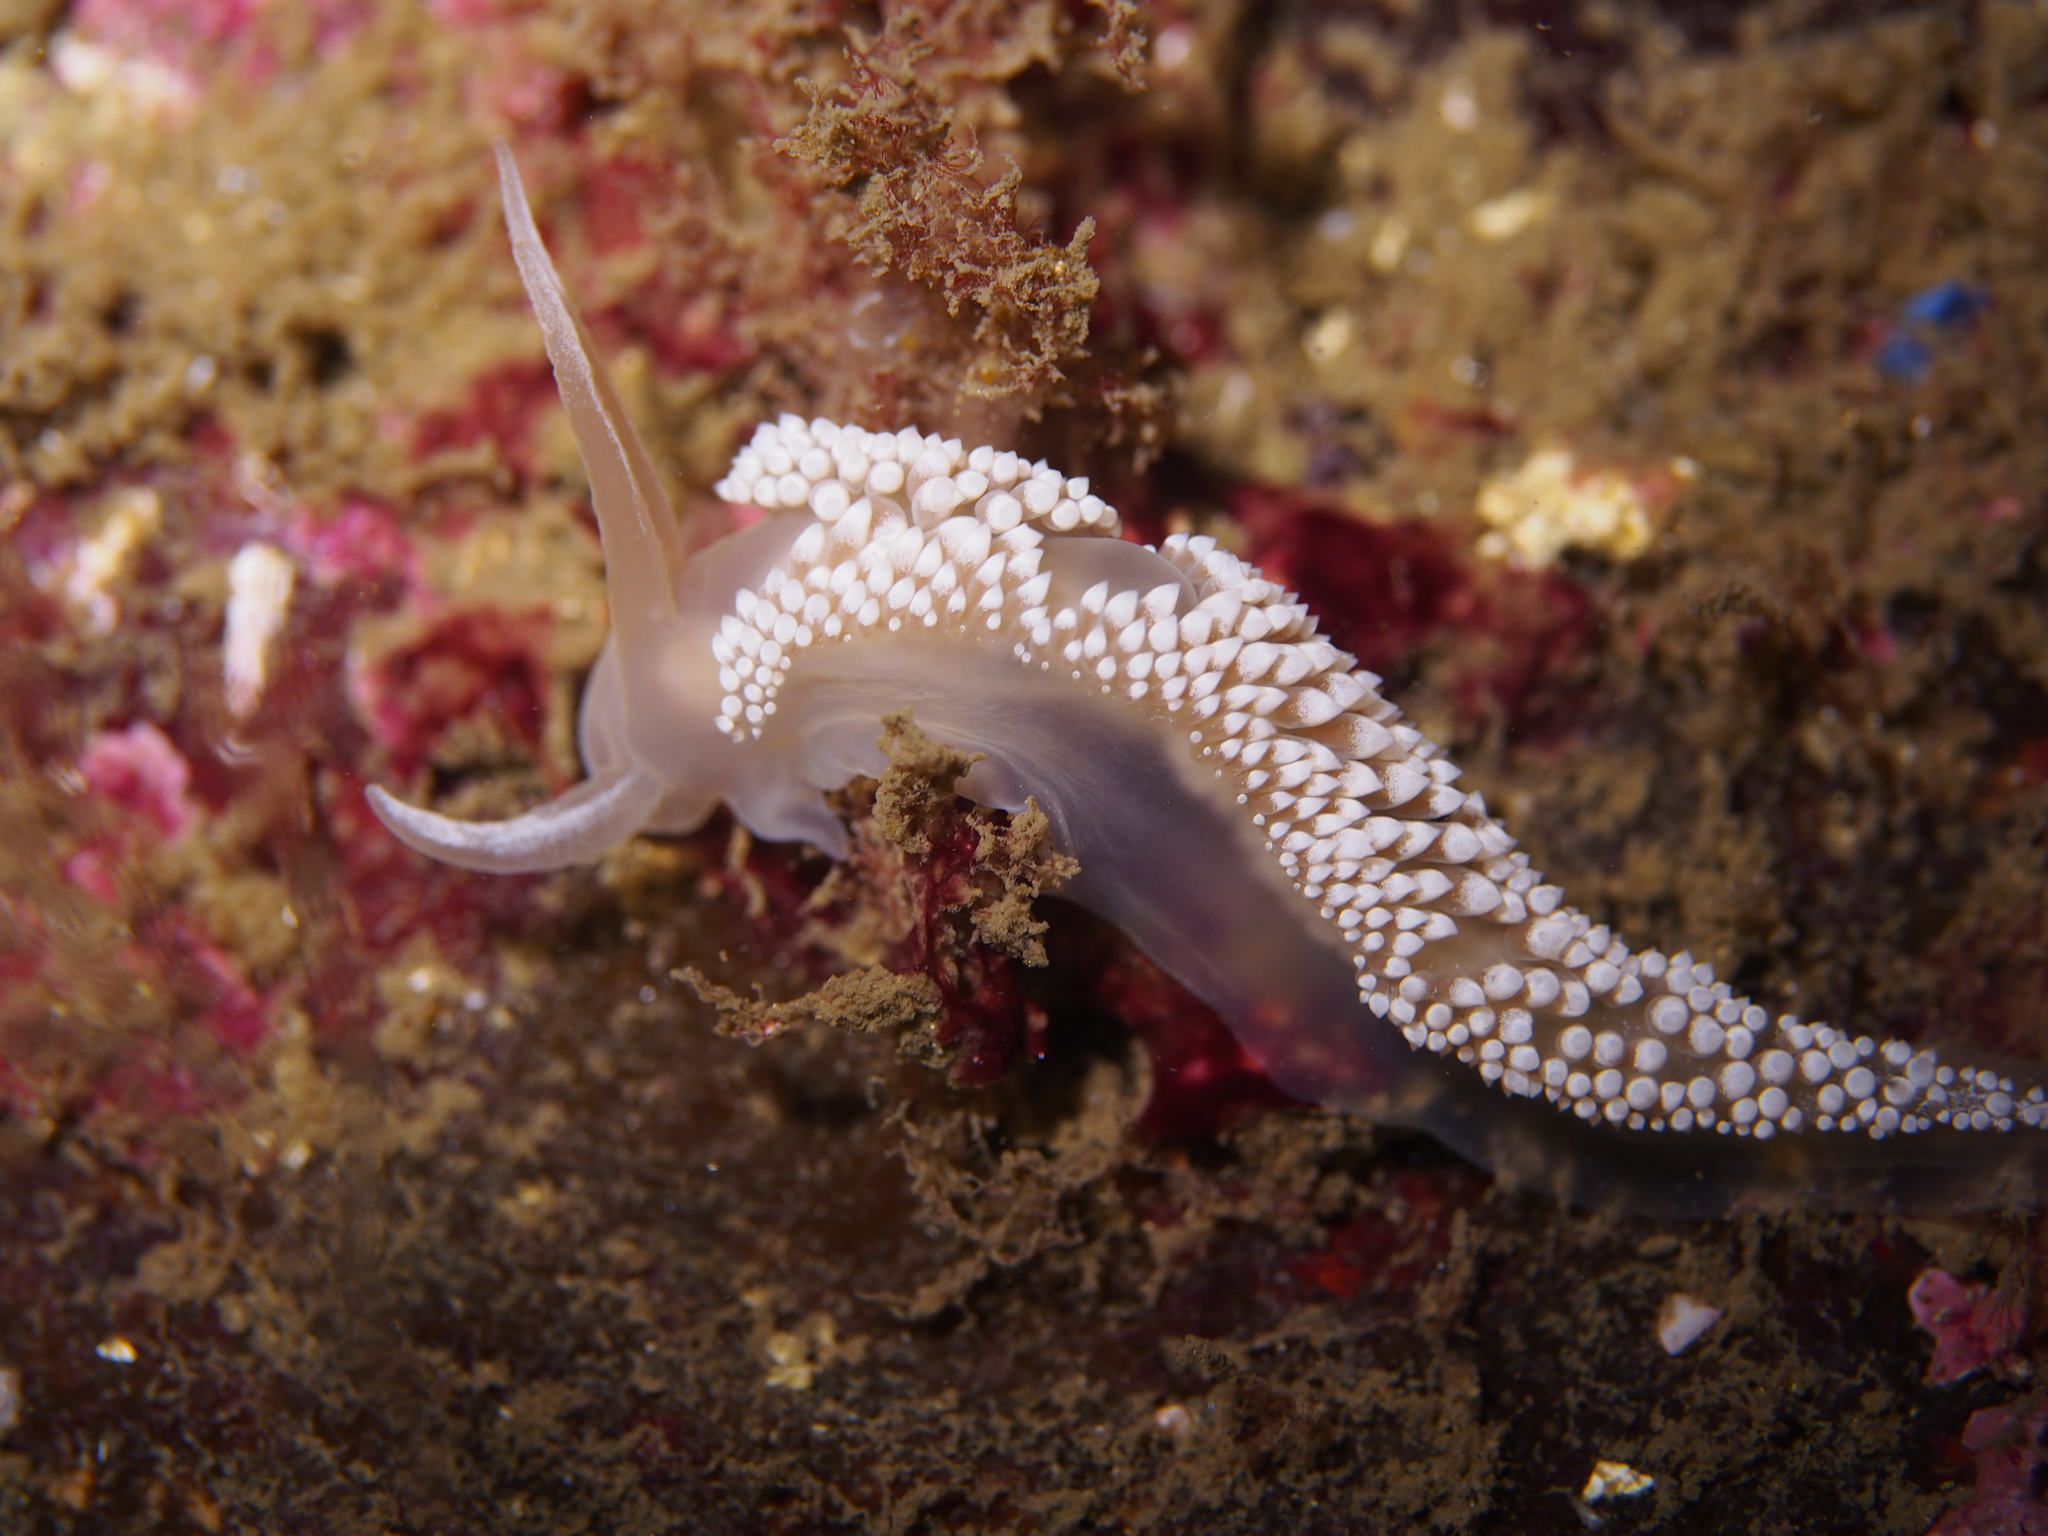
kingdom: Animalia
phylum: Mollusca
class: Gastropoda
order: Nudibranchia
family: Coryphellidae
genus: Coryphella
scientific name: Coryphella verrucosa
